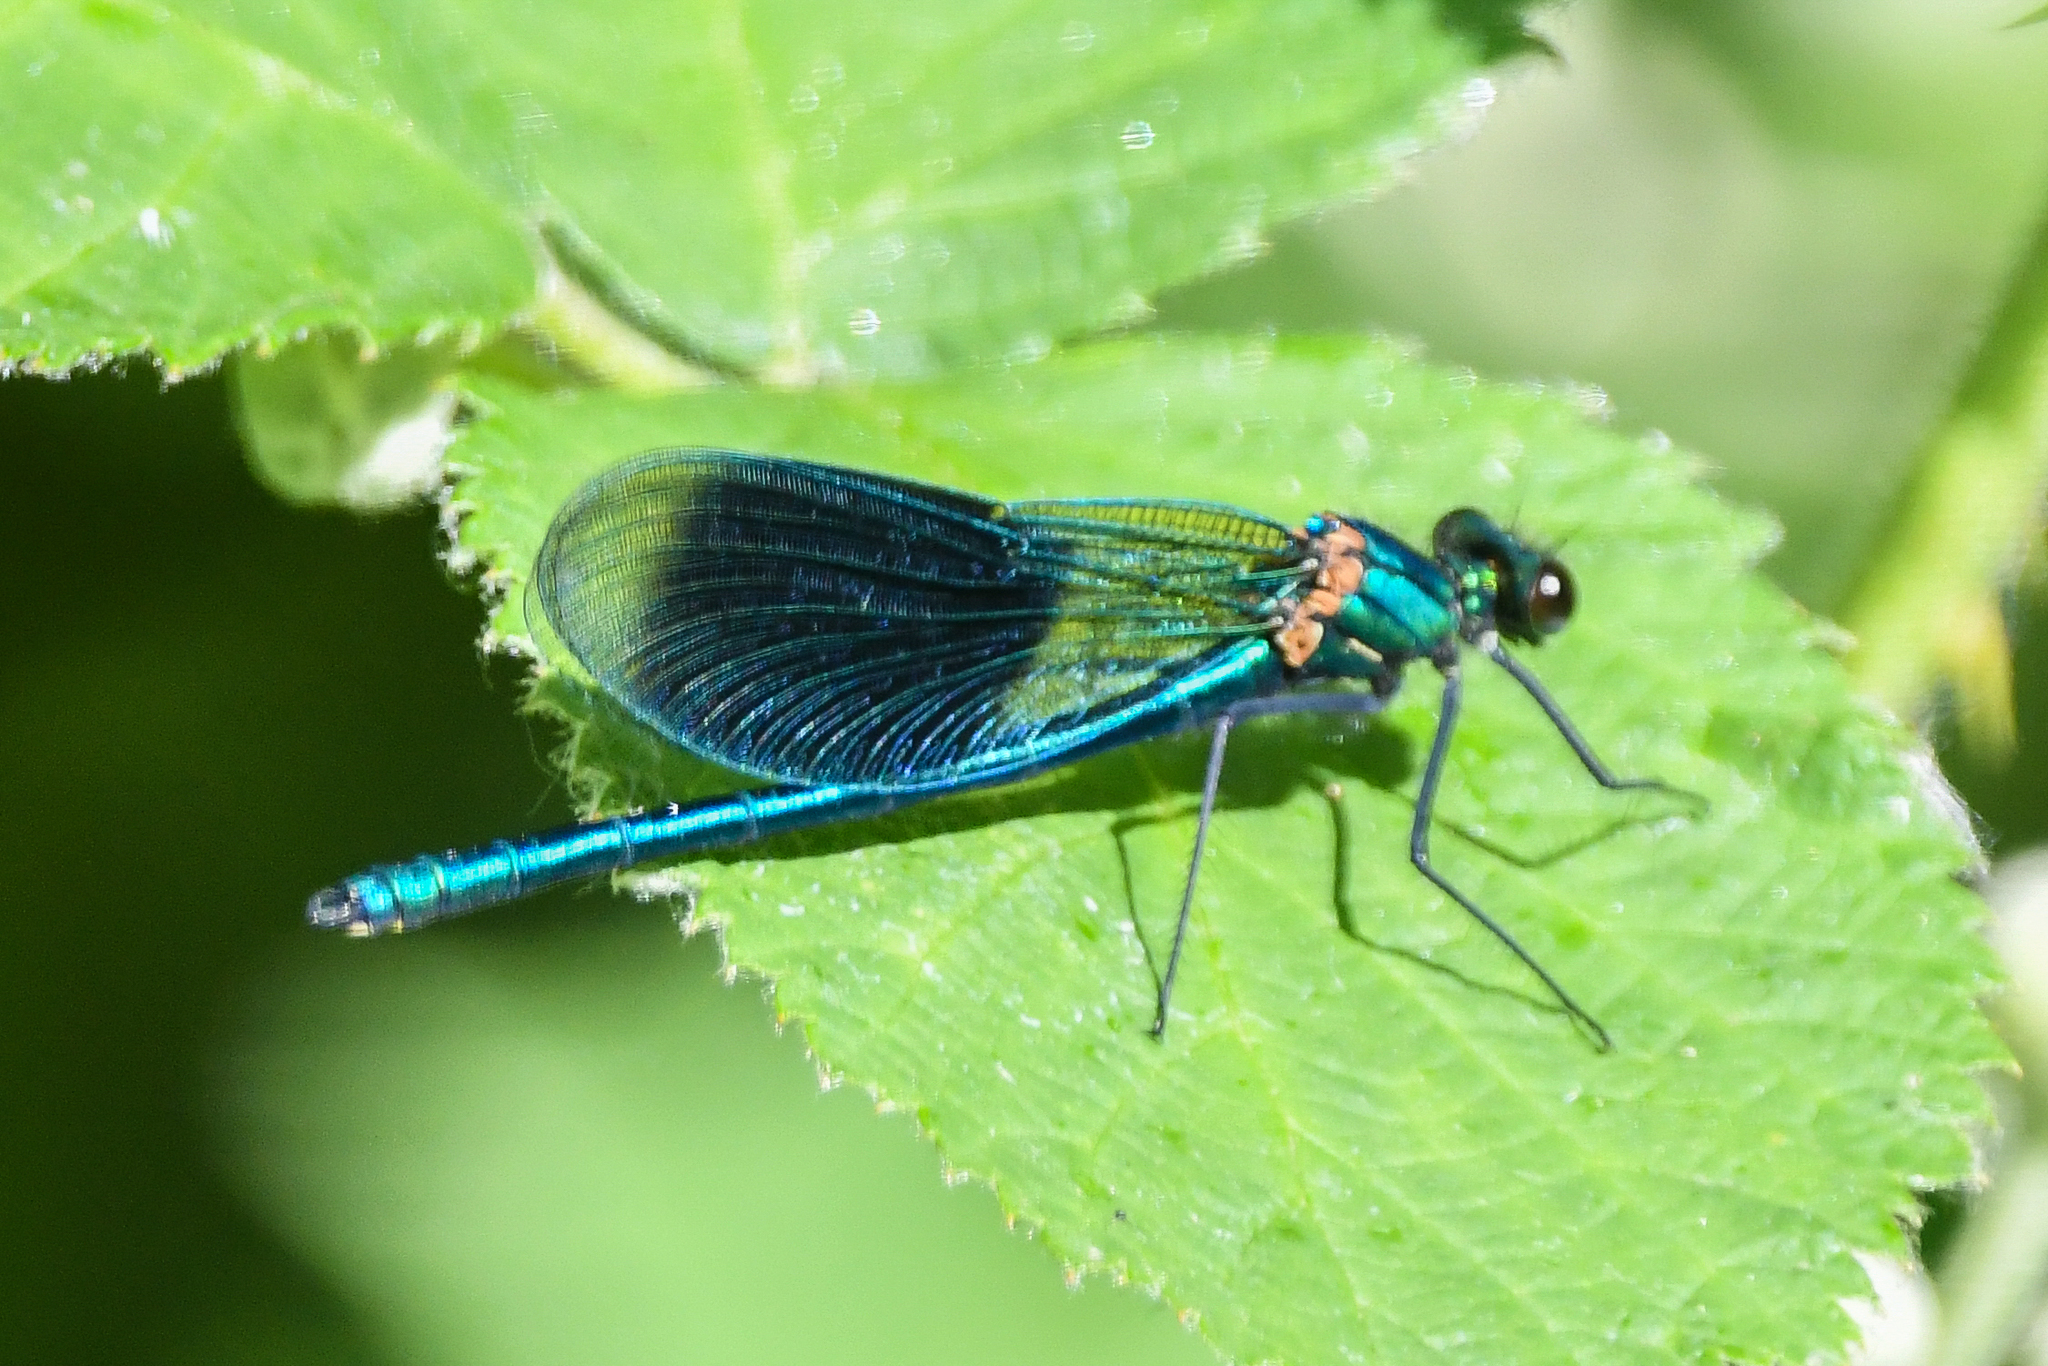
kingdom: Animalia
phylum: Arthropoda
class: Insecta
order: Odonata
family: Calopterygidae
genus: Calopteryx
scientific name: Calopteryx splendens
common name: Banded demoiselle
